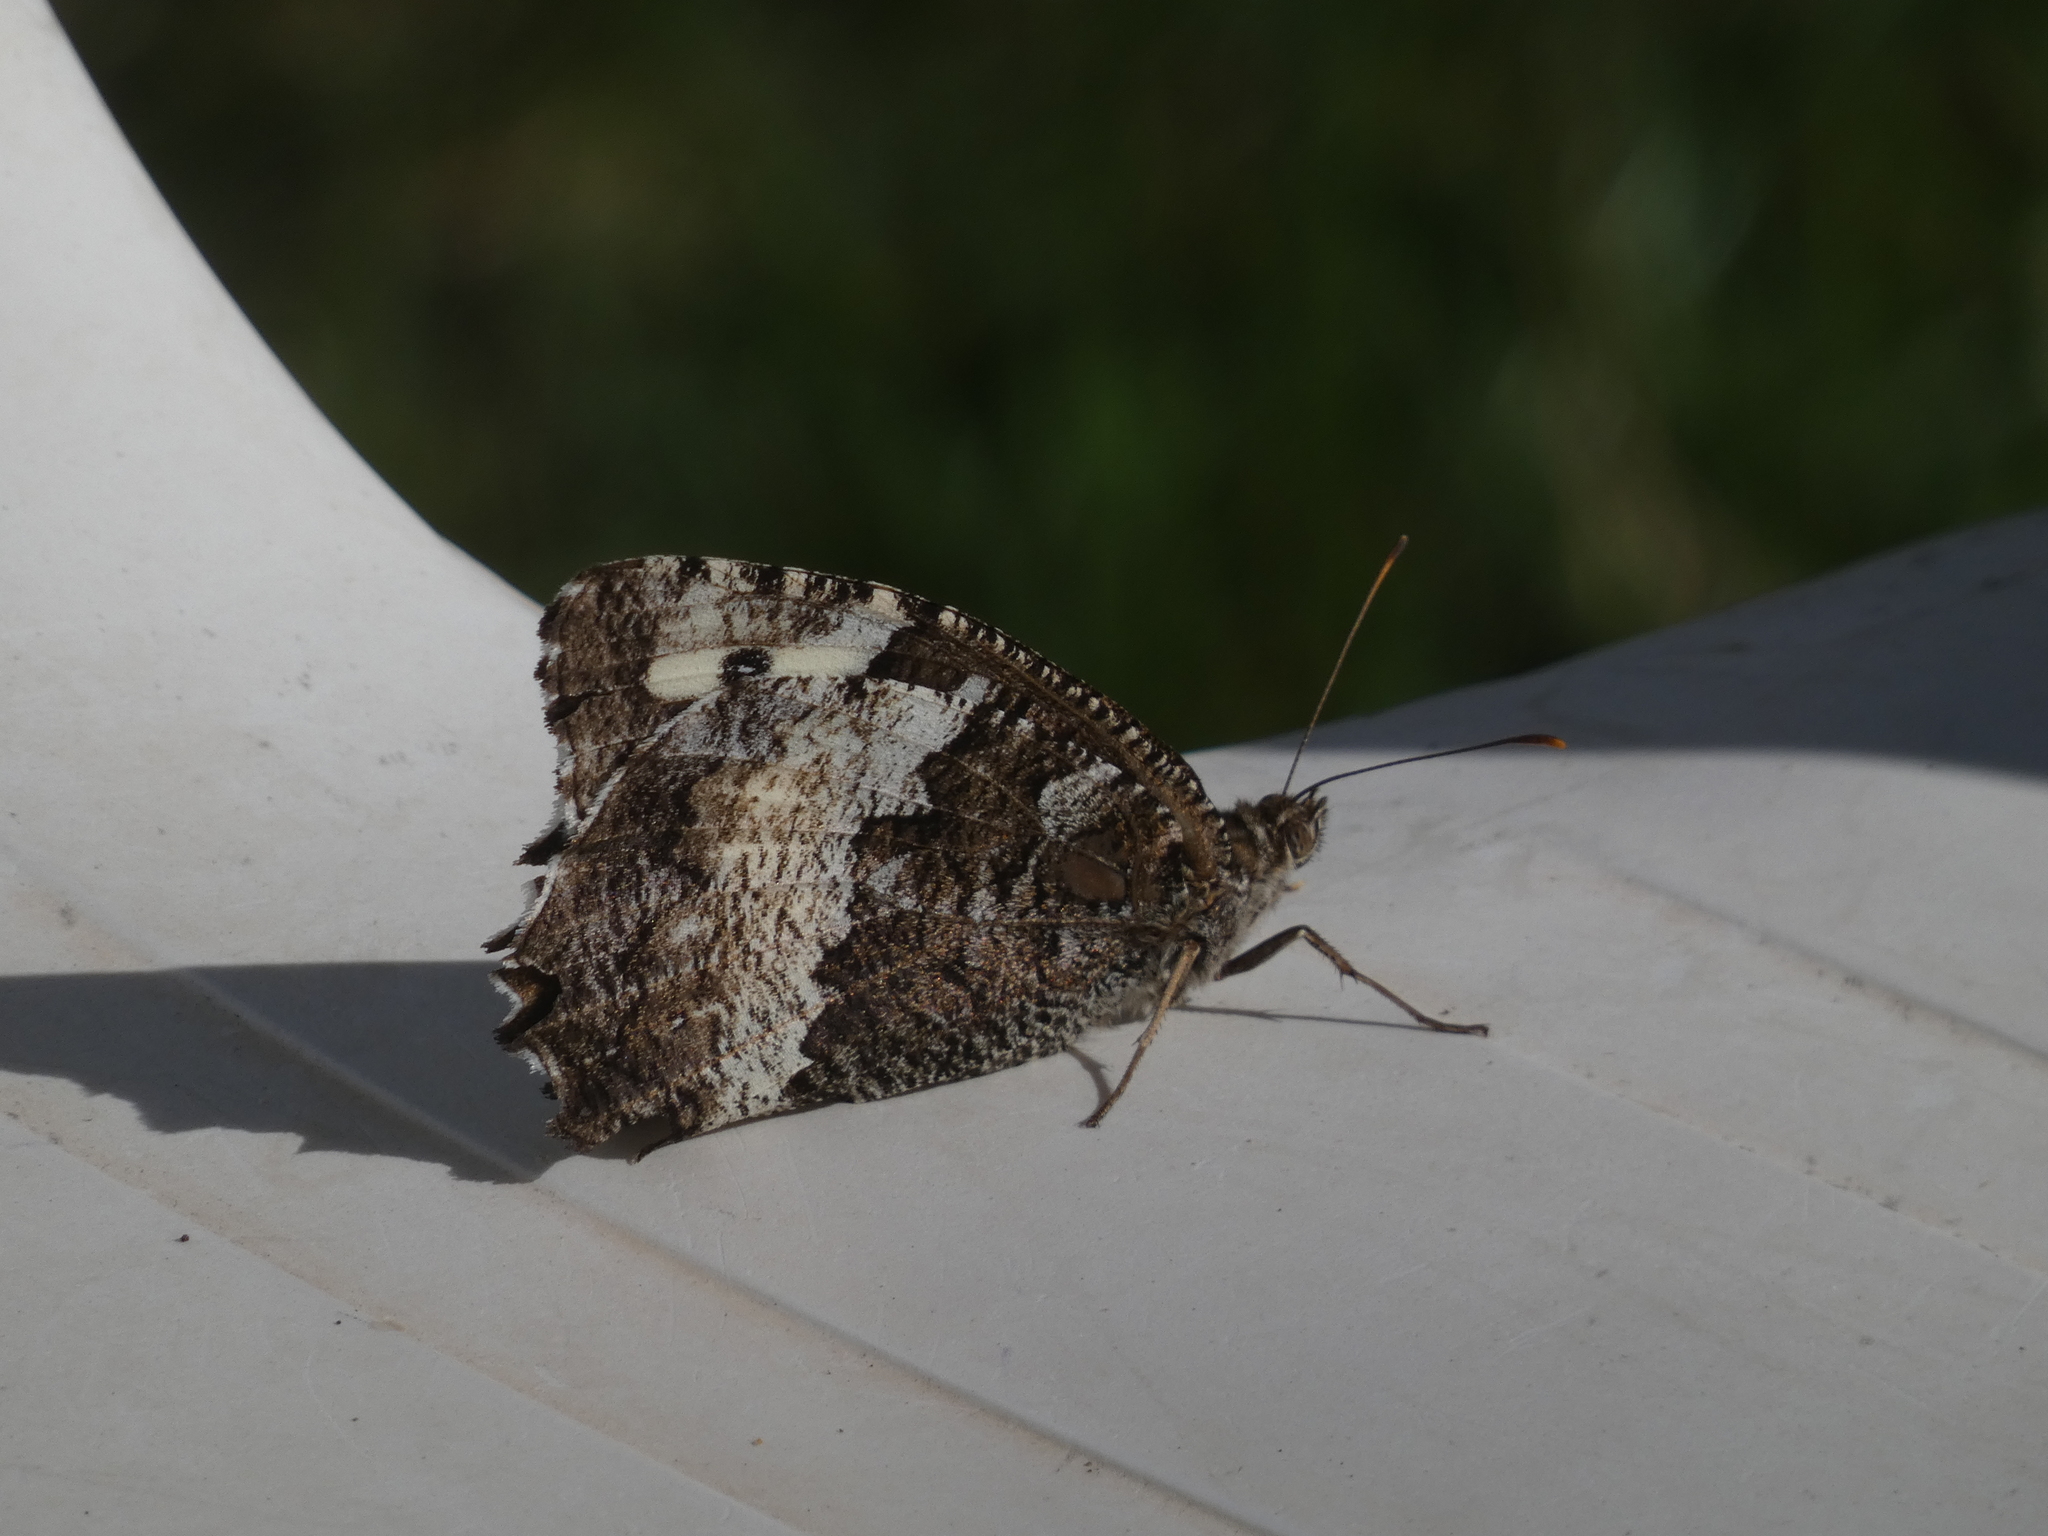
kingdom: Animalia
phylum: Arthropoda
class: Insecta
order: Lepidoptera
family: Lycaenidae
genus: Loweia
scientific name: Loweia tityrus
